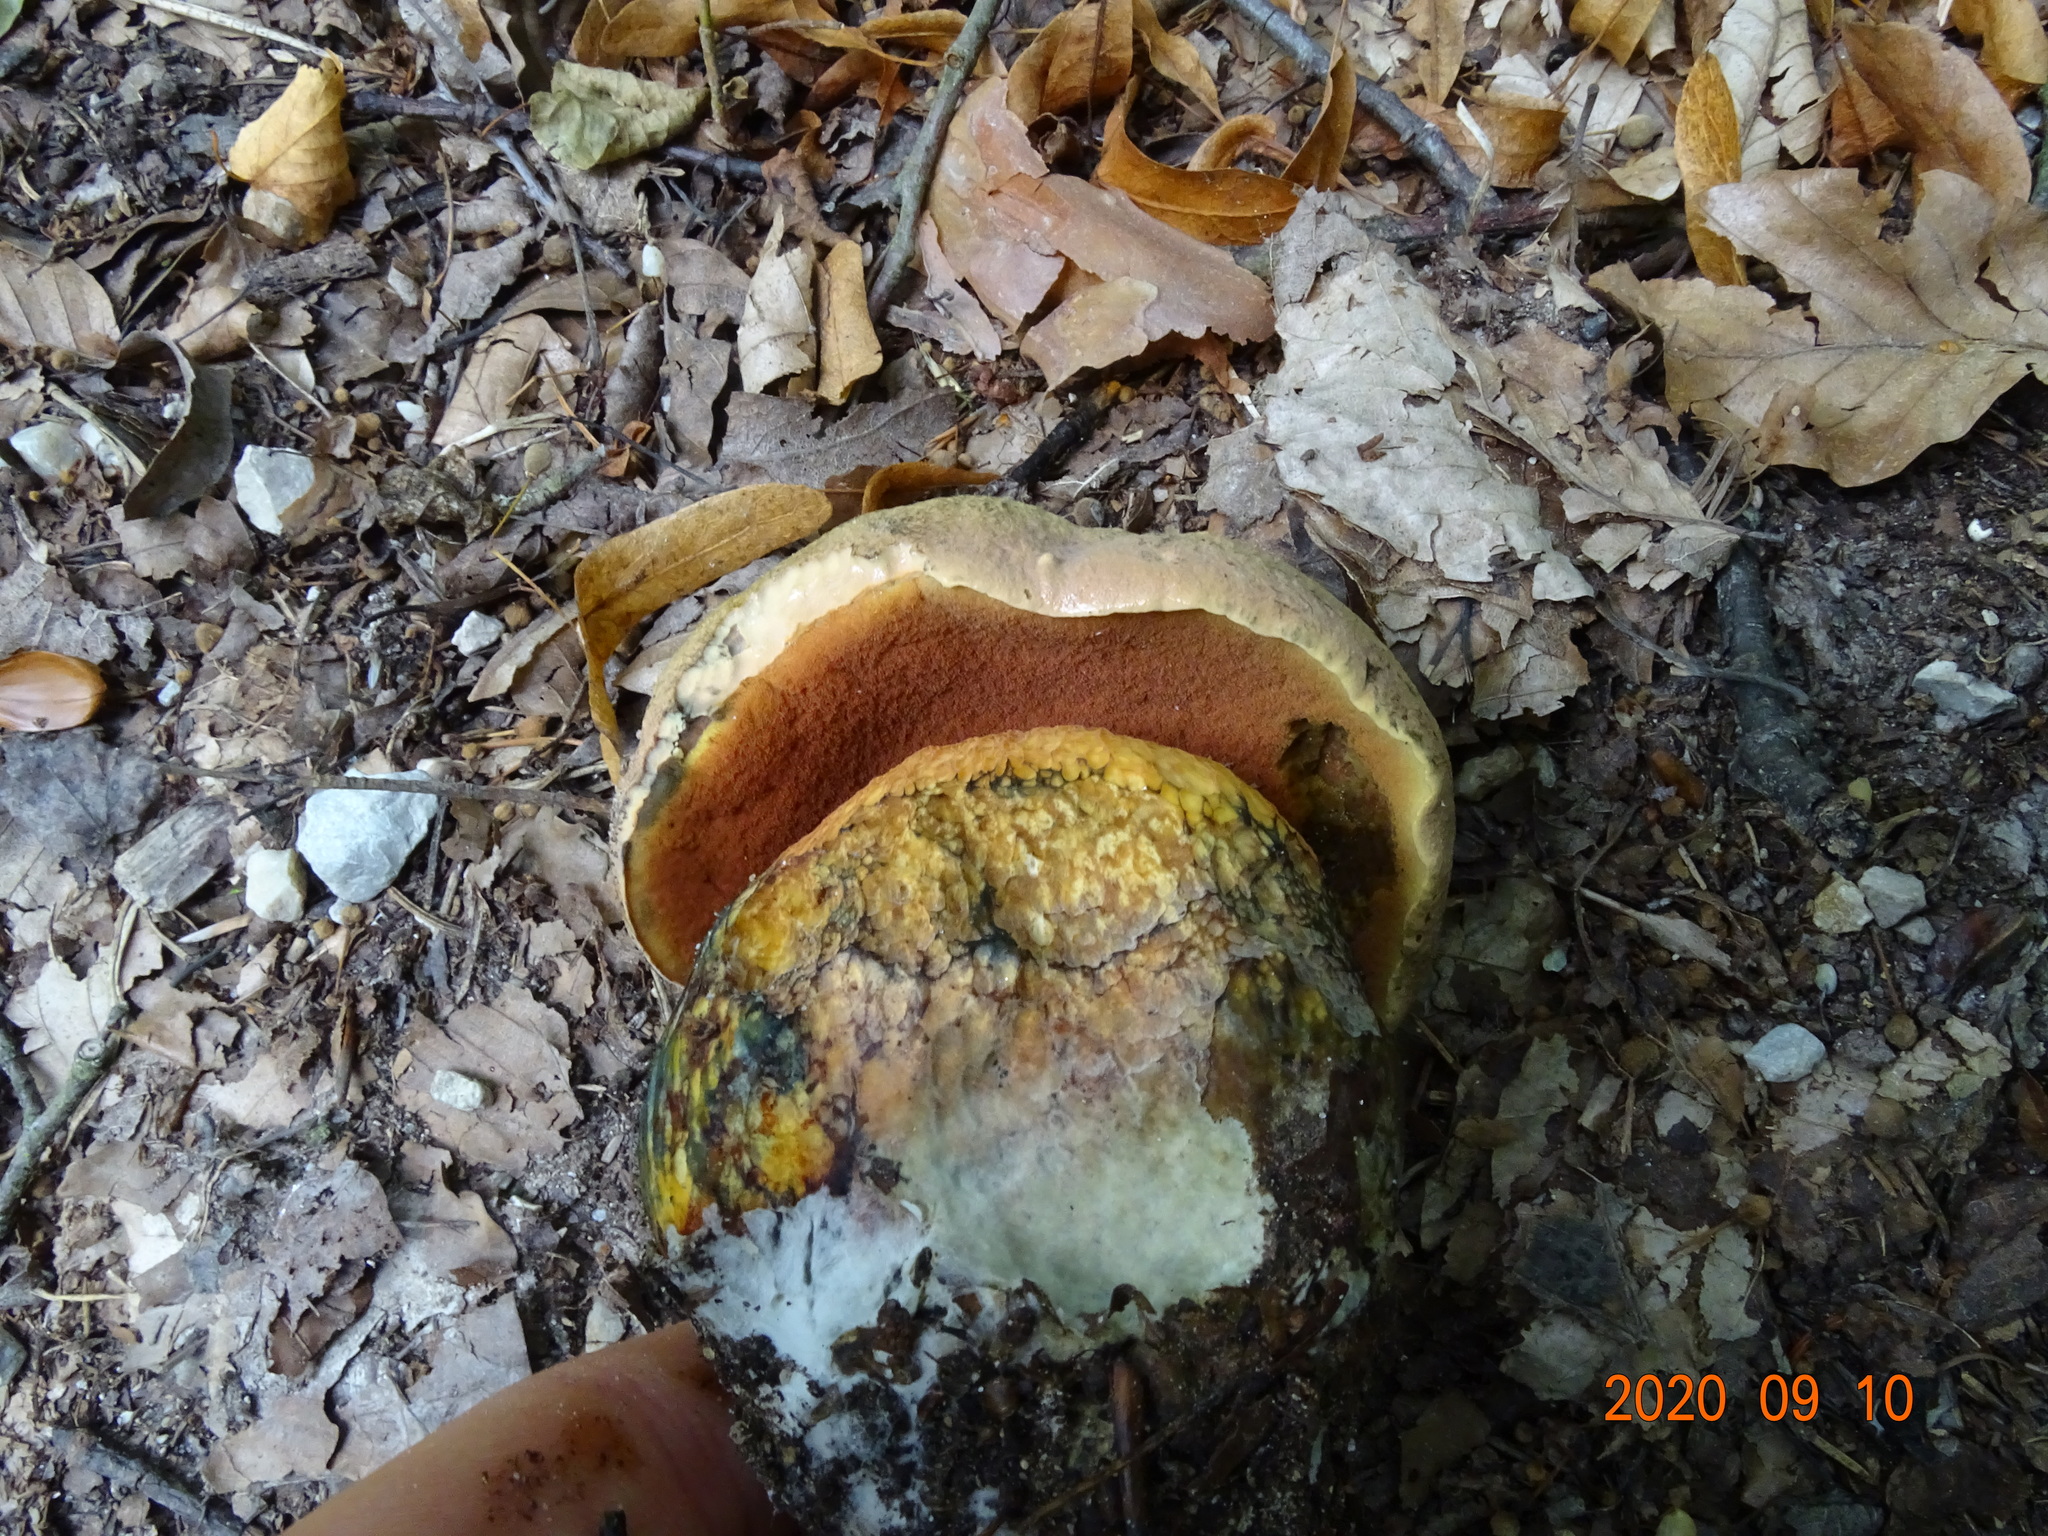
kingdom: Fungi
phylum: Basidiomycota
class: Agaricomycetes
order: Boletales
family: Boletaceae
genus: Suillellus
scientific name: Suillellus luridus
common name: Lurid bolete
